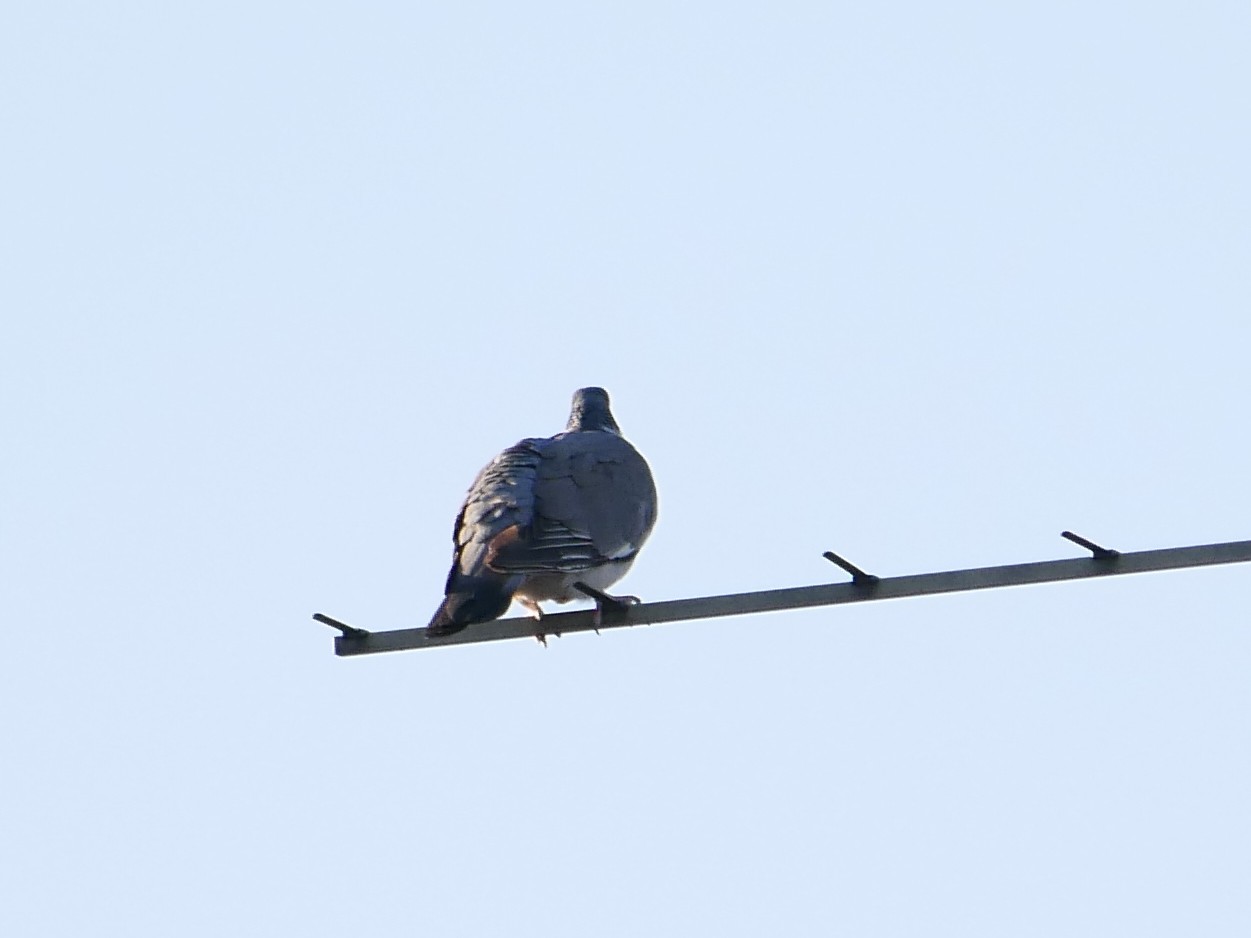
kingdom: Animalia
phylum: Chordata
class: Aves
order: Columbiformes
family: Columbidae
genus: Columba
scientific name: Columba palumbus
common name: Common wood pigeon
